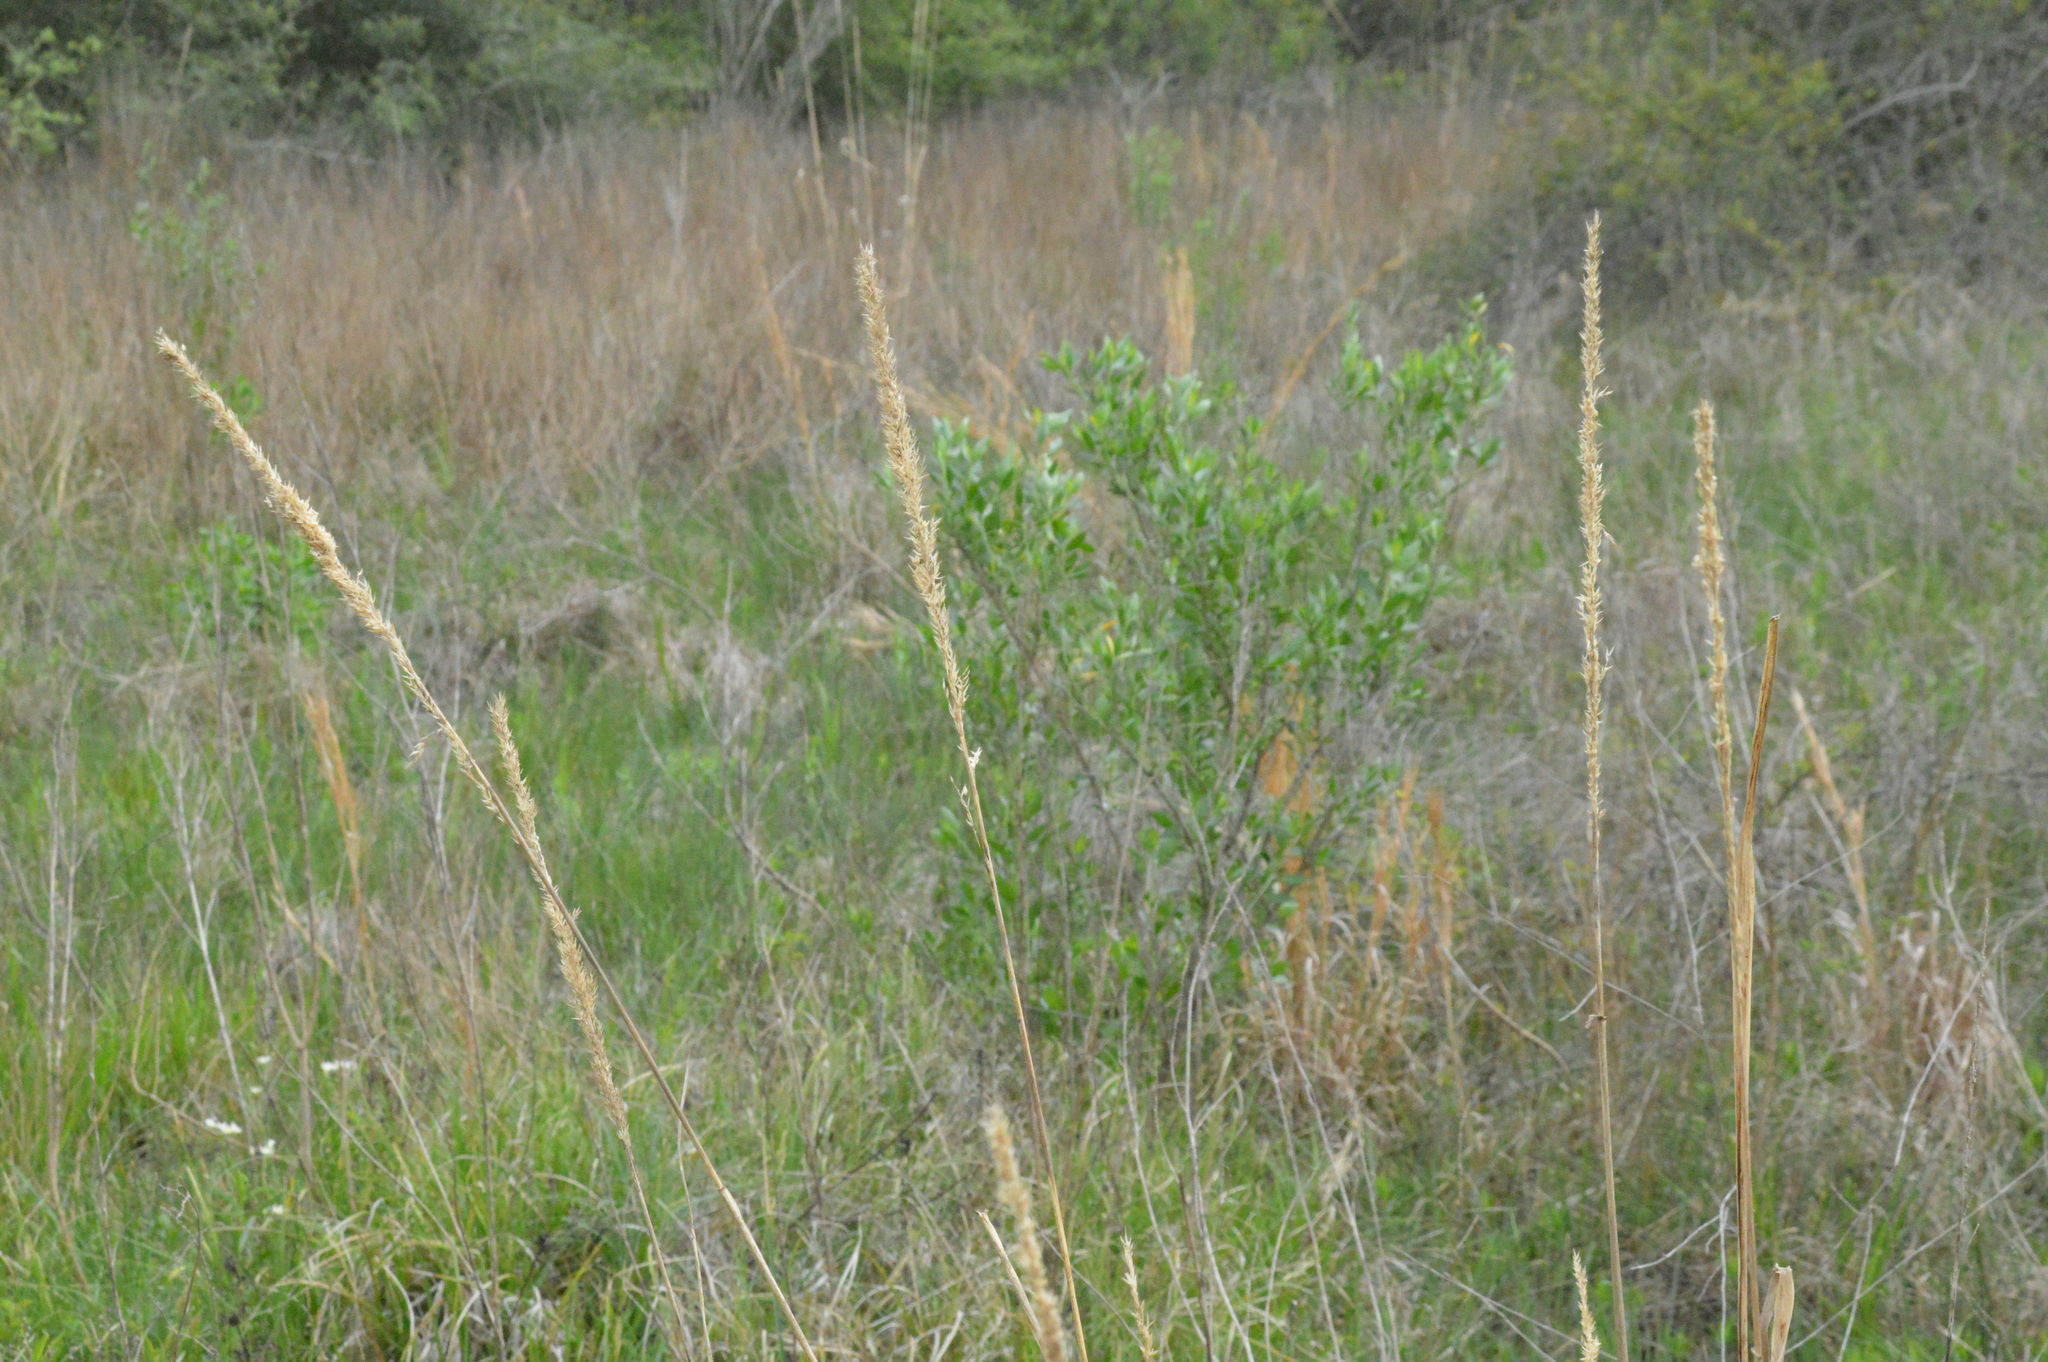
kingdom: Plantae
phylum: Tracheophyta
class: Liliopsida
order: Poales
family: Poaceae
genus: Tridens
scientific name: Tridens strictus
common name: Long-spike tridens
